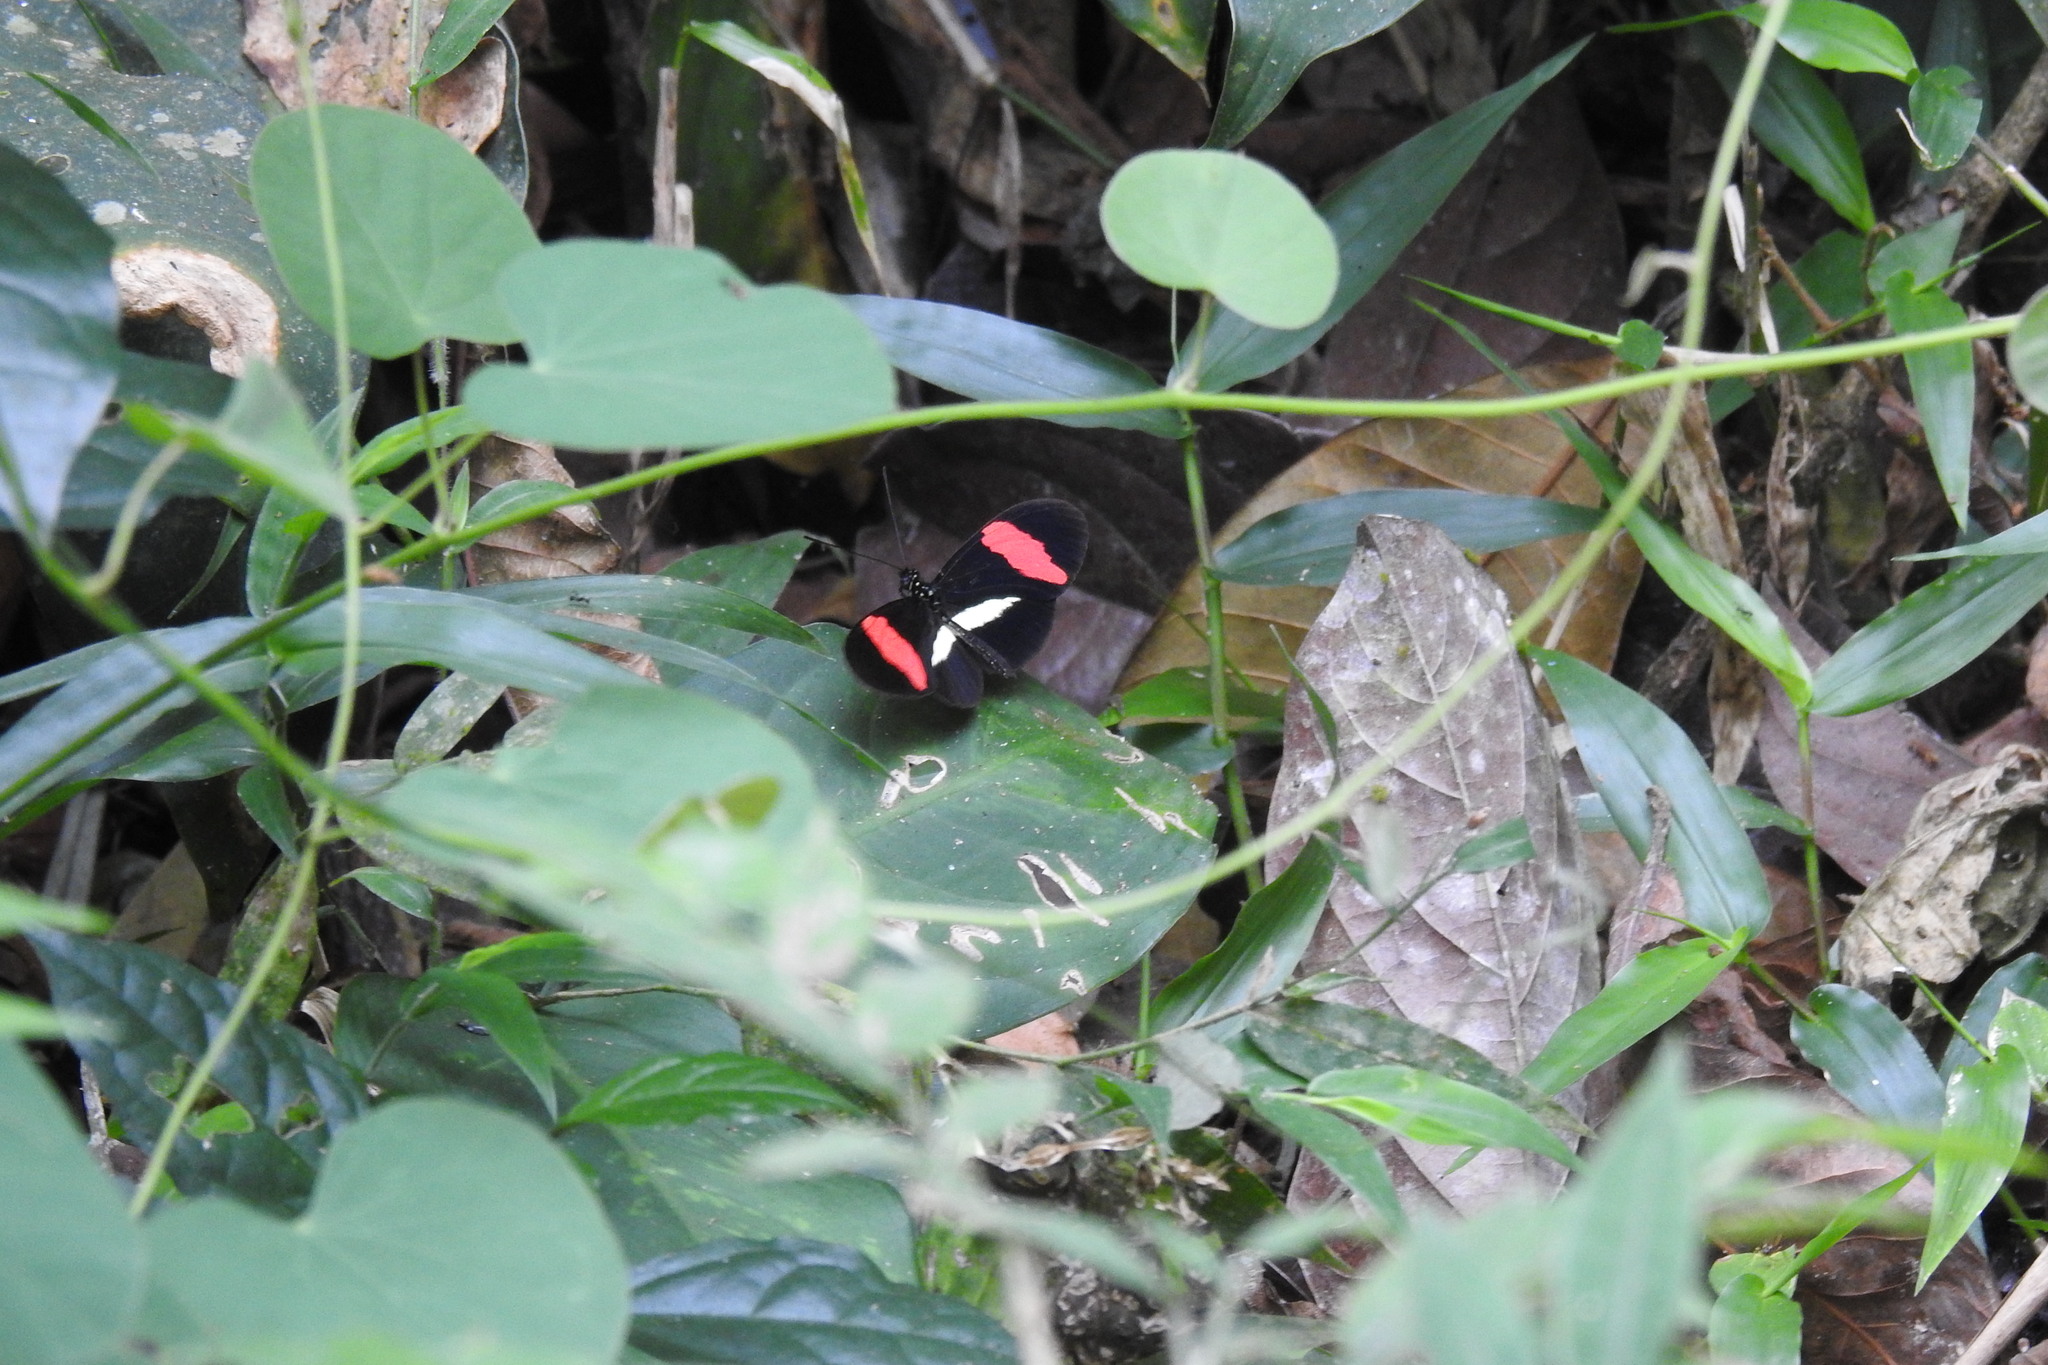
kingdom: Animalia
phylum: Arthropoda
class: Insecta
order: Lepidoptera
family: Nymphalidae
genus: Tirumala
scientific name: Tirumala petiverana
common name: Blue monarch
